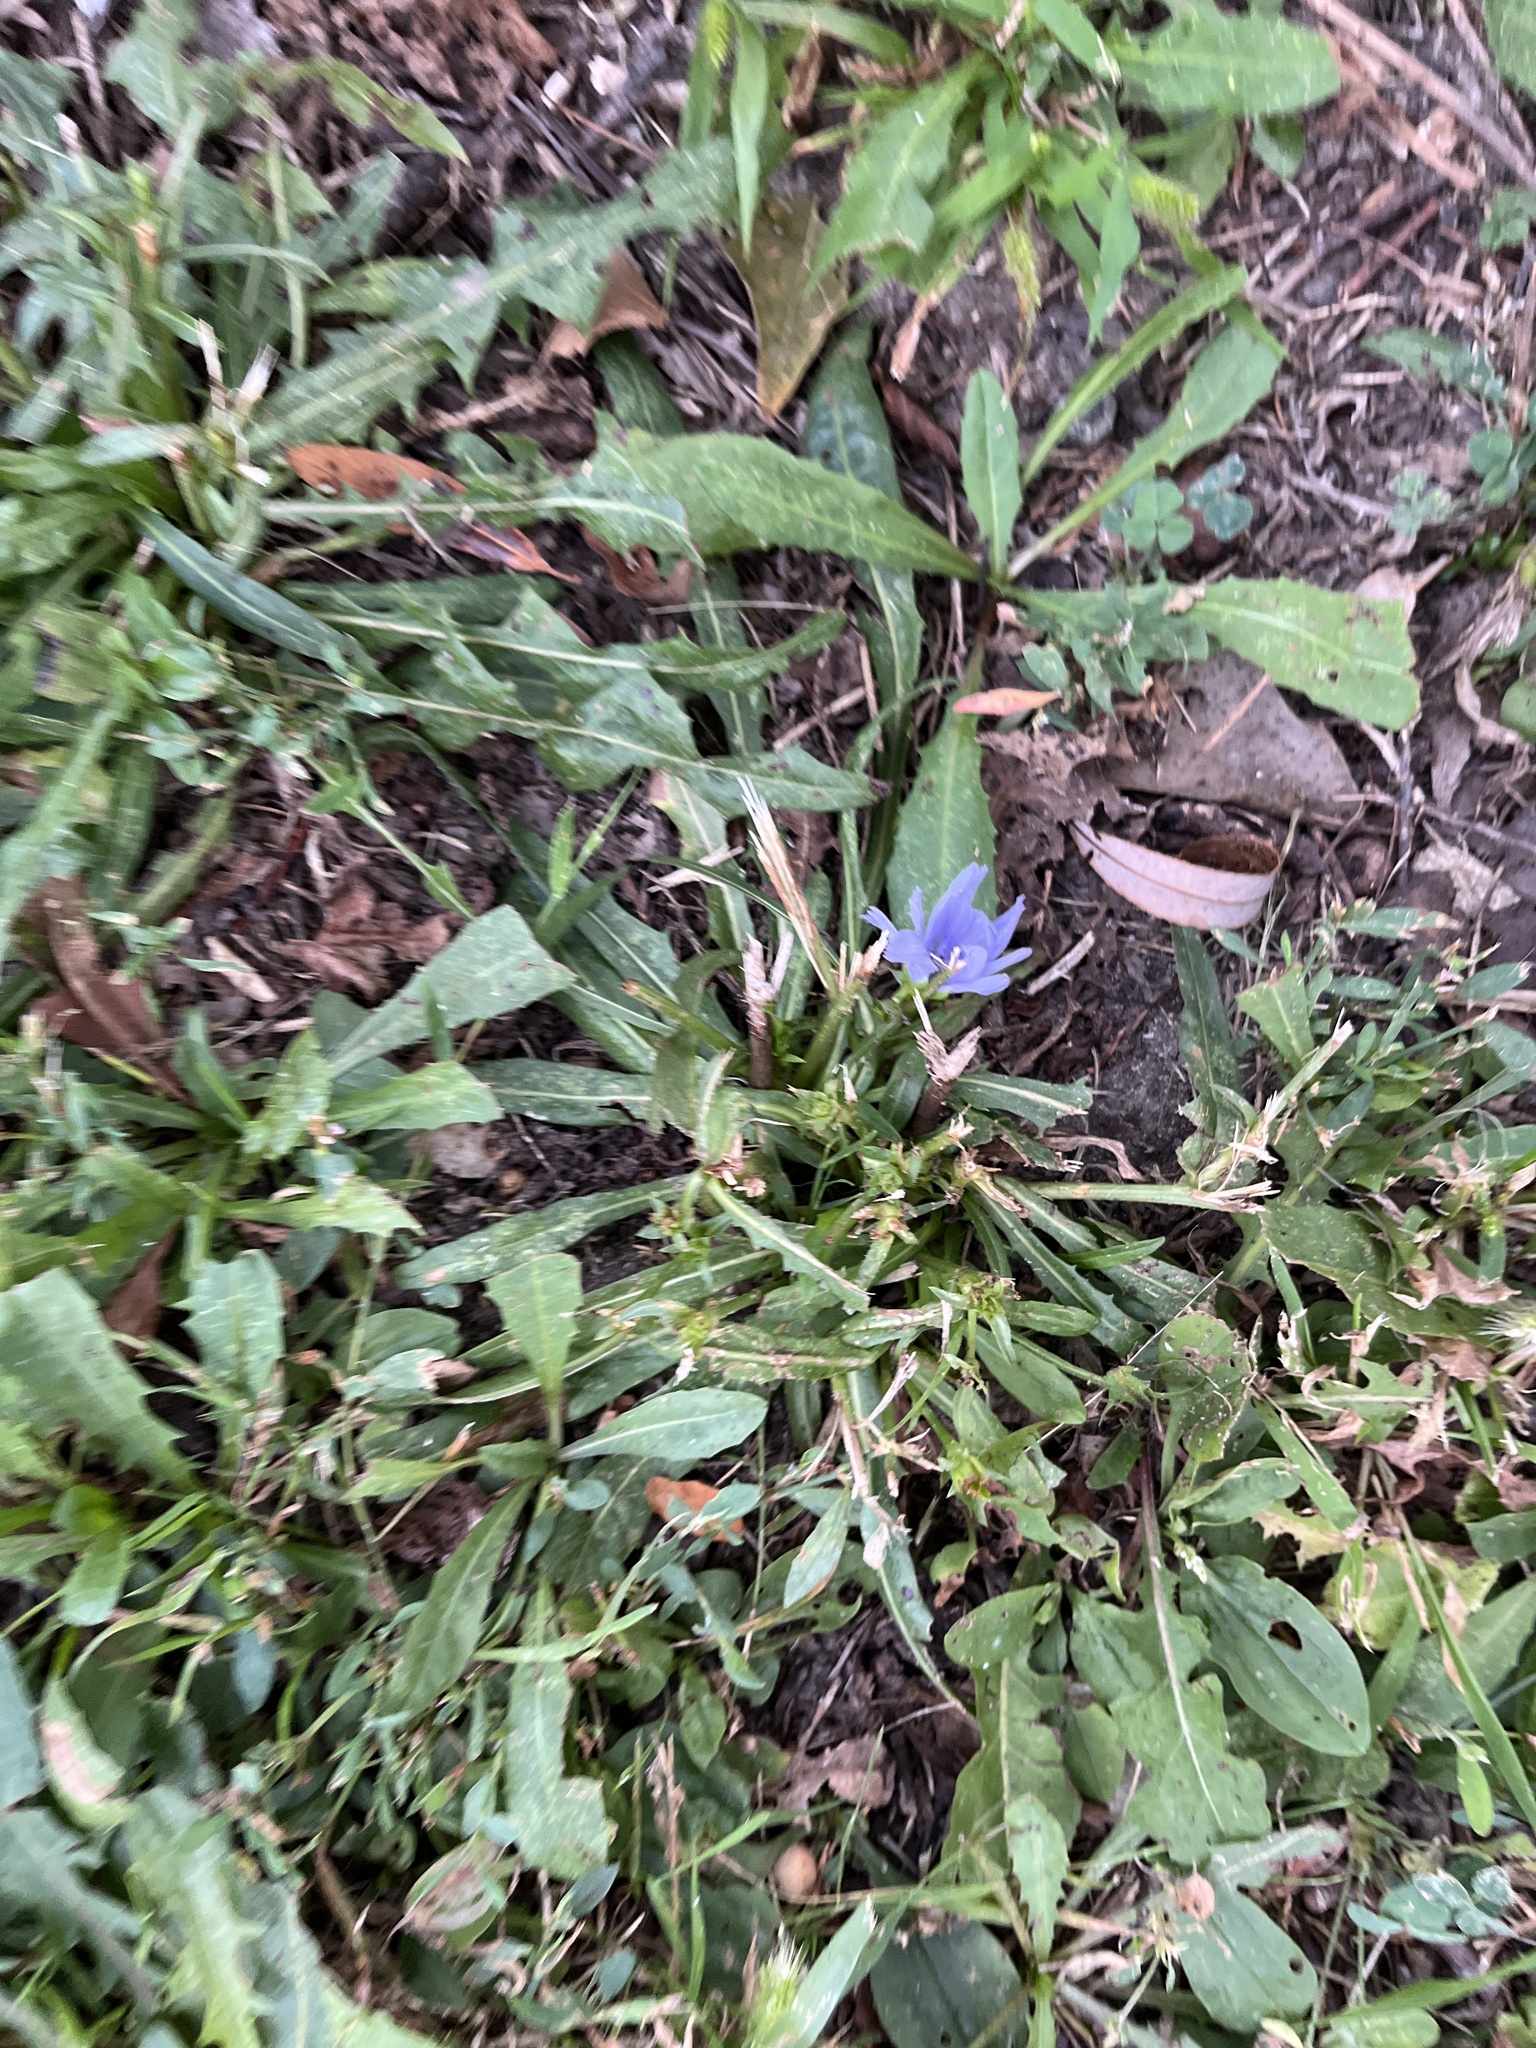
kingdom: Plantae
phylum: Tracheophyta
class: Magnoliopsida
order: Asterales
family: Asteraceae
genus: Cichorium
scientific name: Cichorium intybus
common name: Chicory
